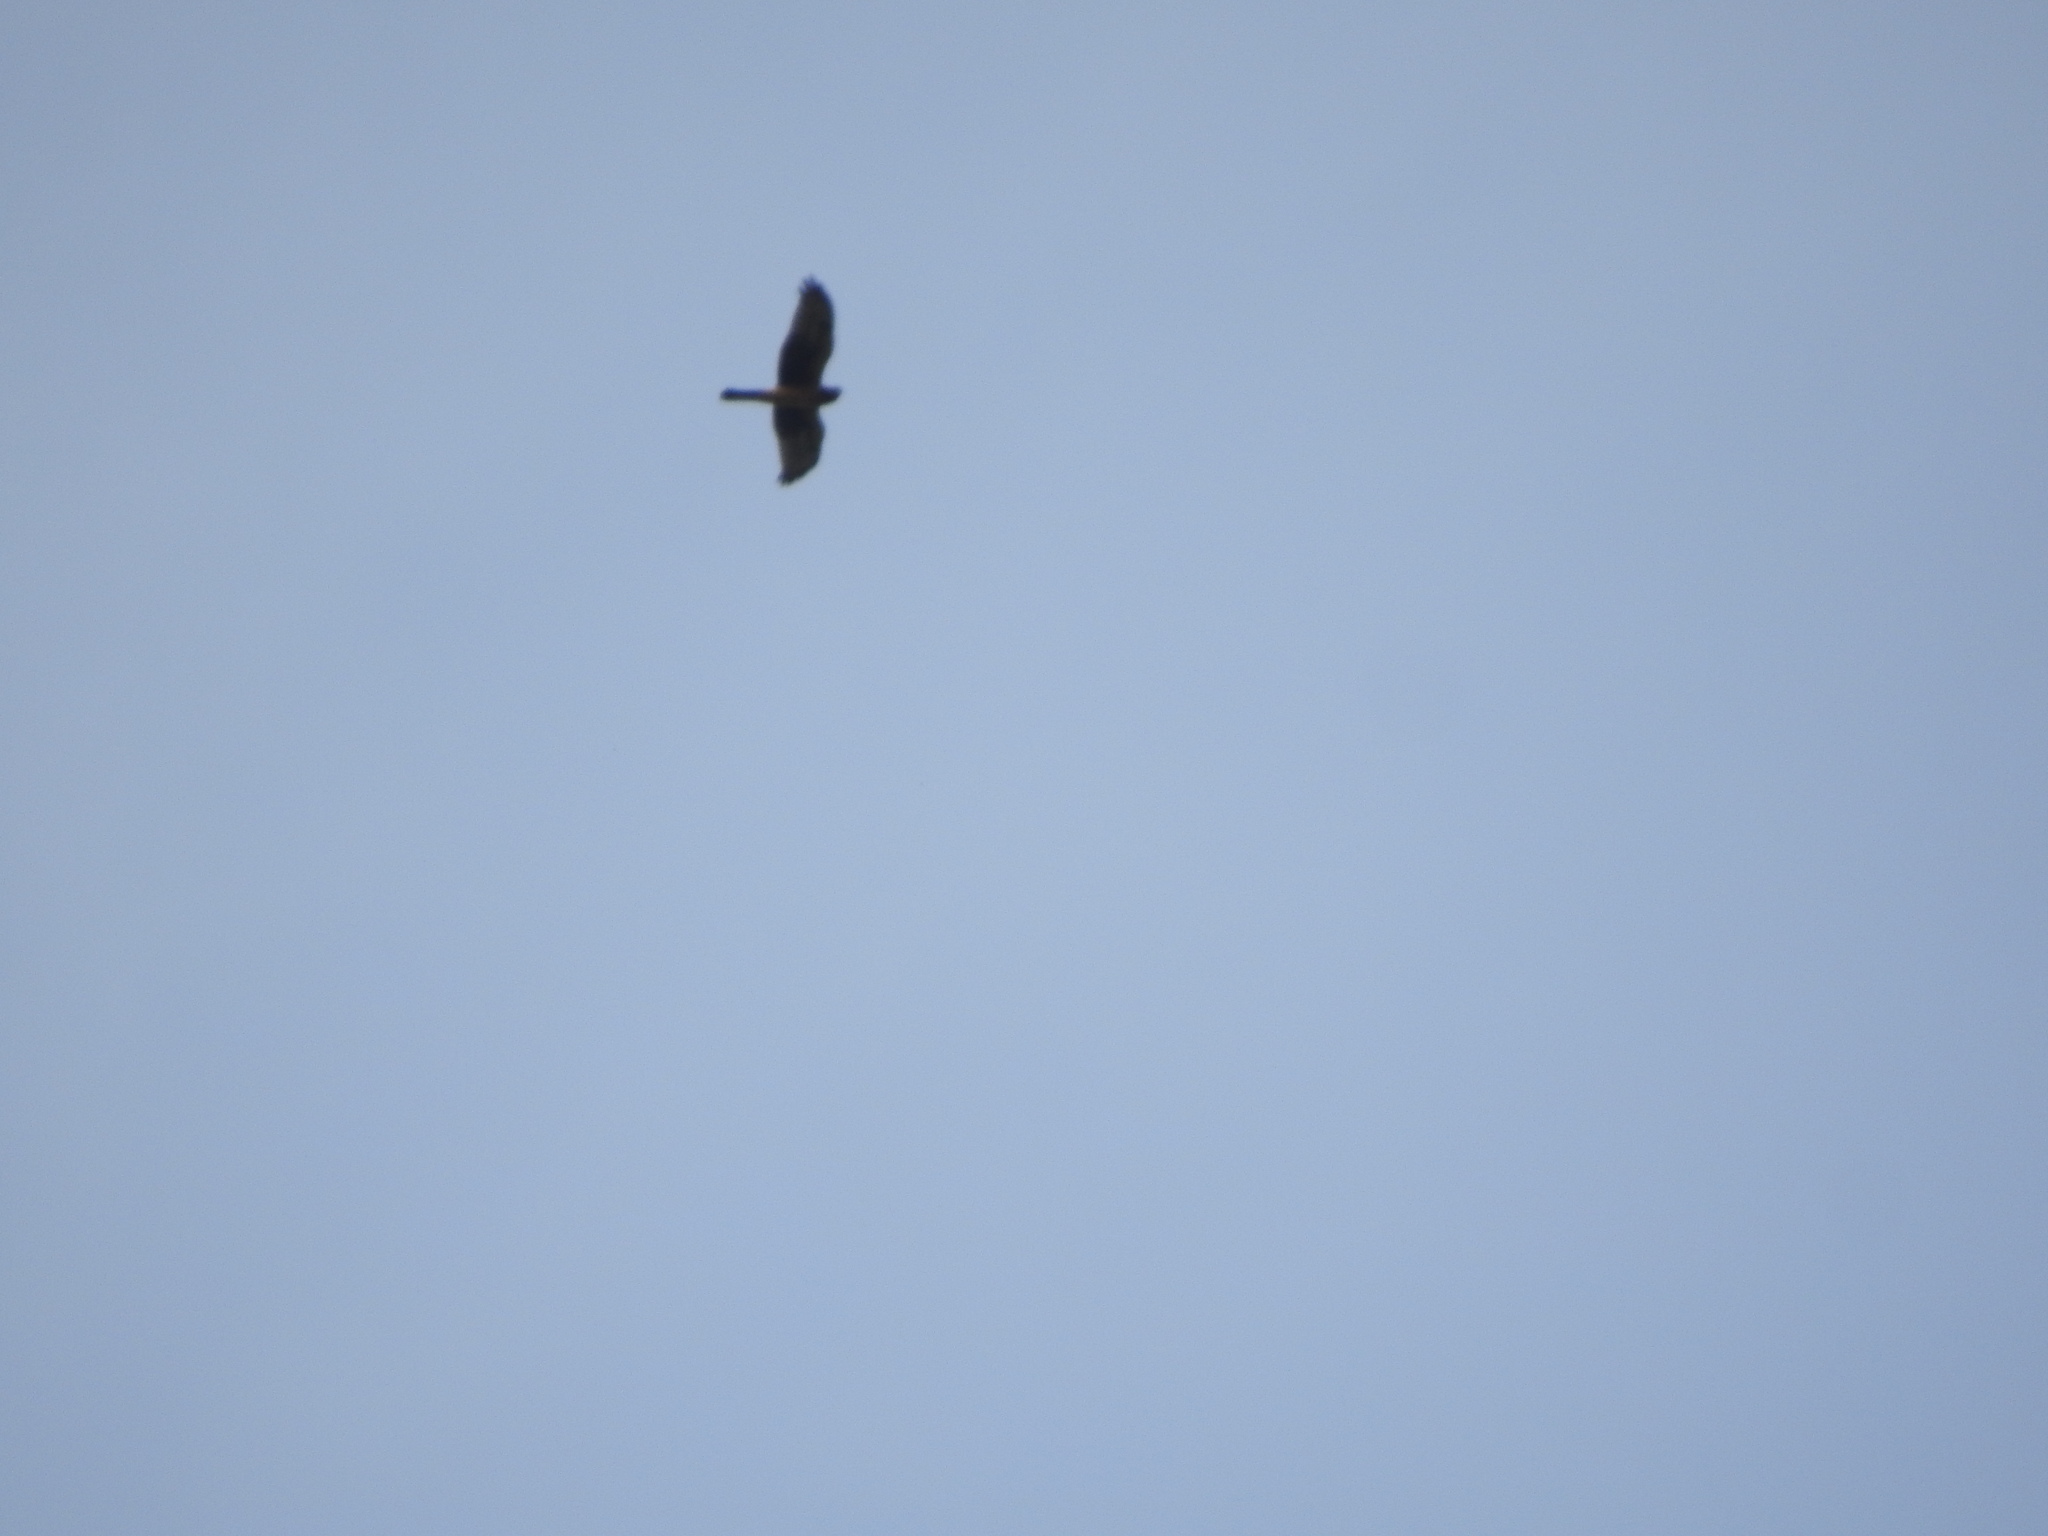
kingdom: Animalia
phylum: Chordata
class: Aves
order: Accipitriformes
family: Accipitridae
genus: Circus
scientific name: Circus cyaneus
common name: Hen harrier
